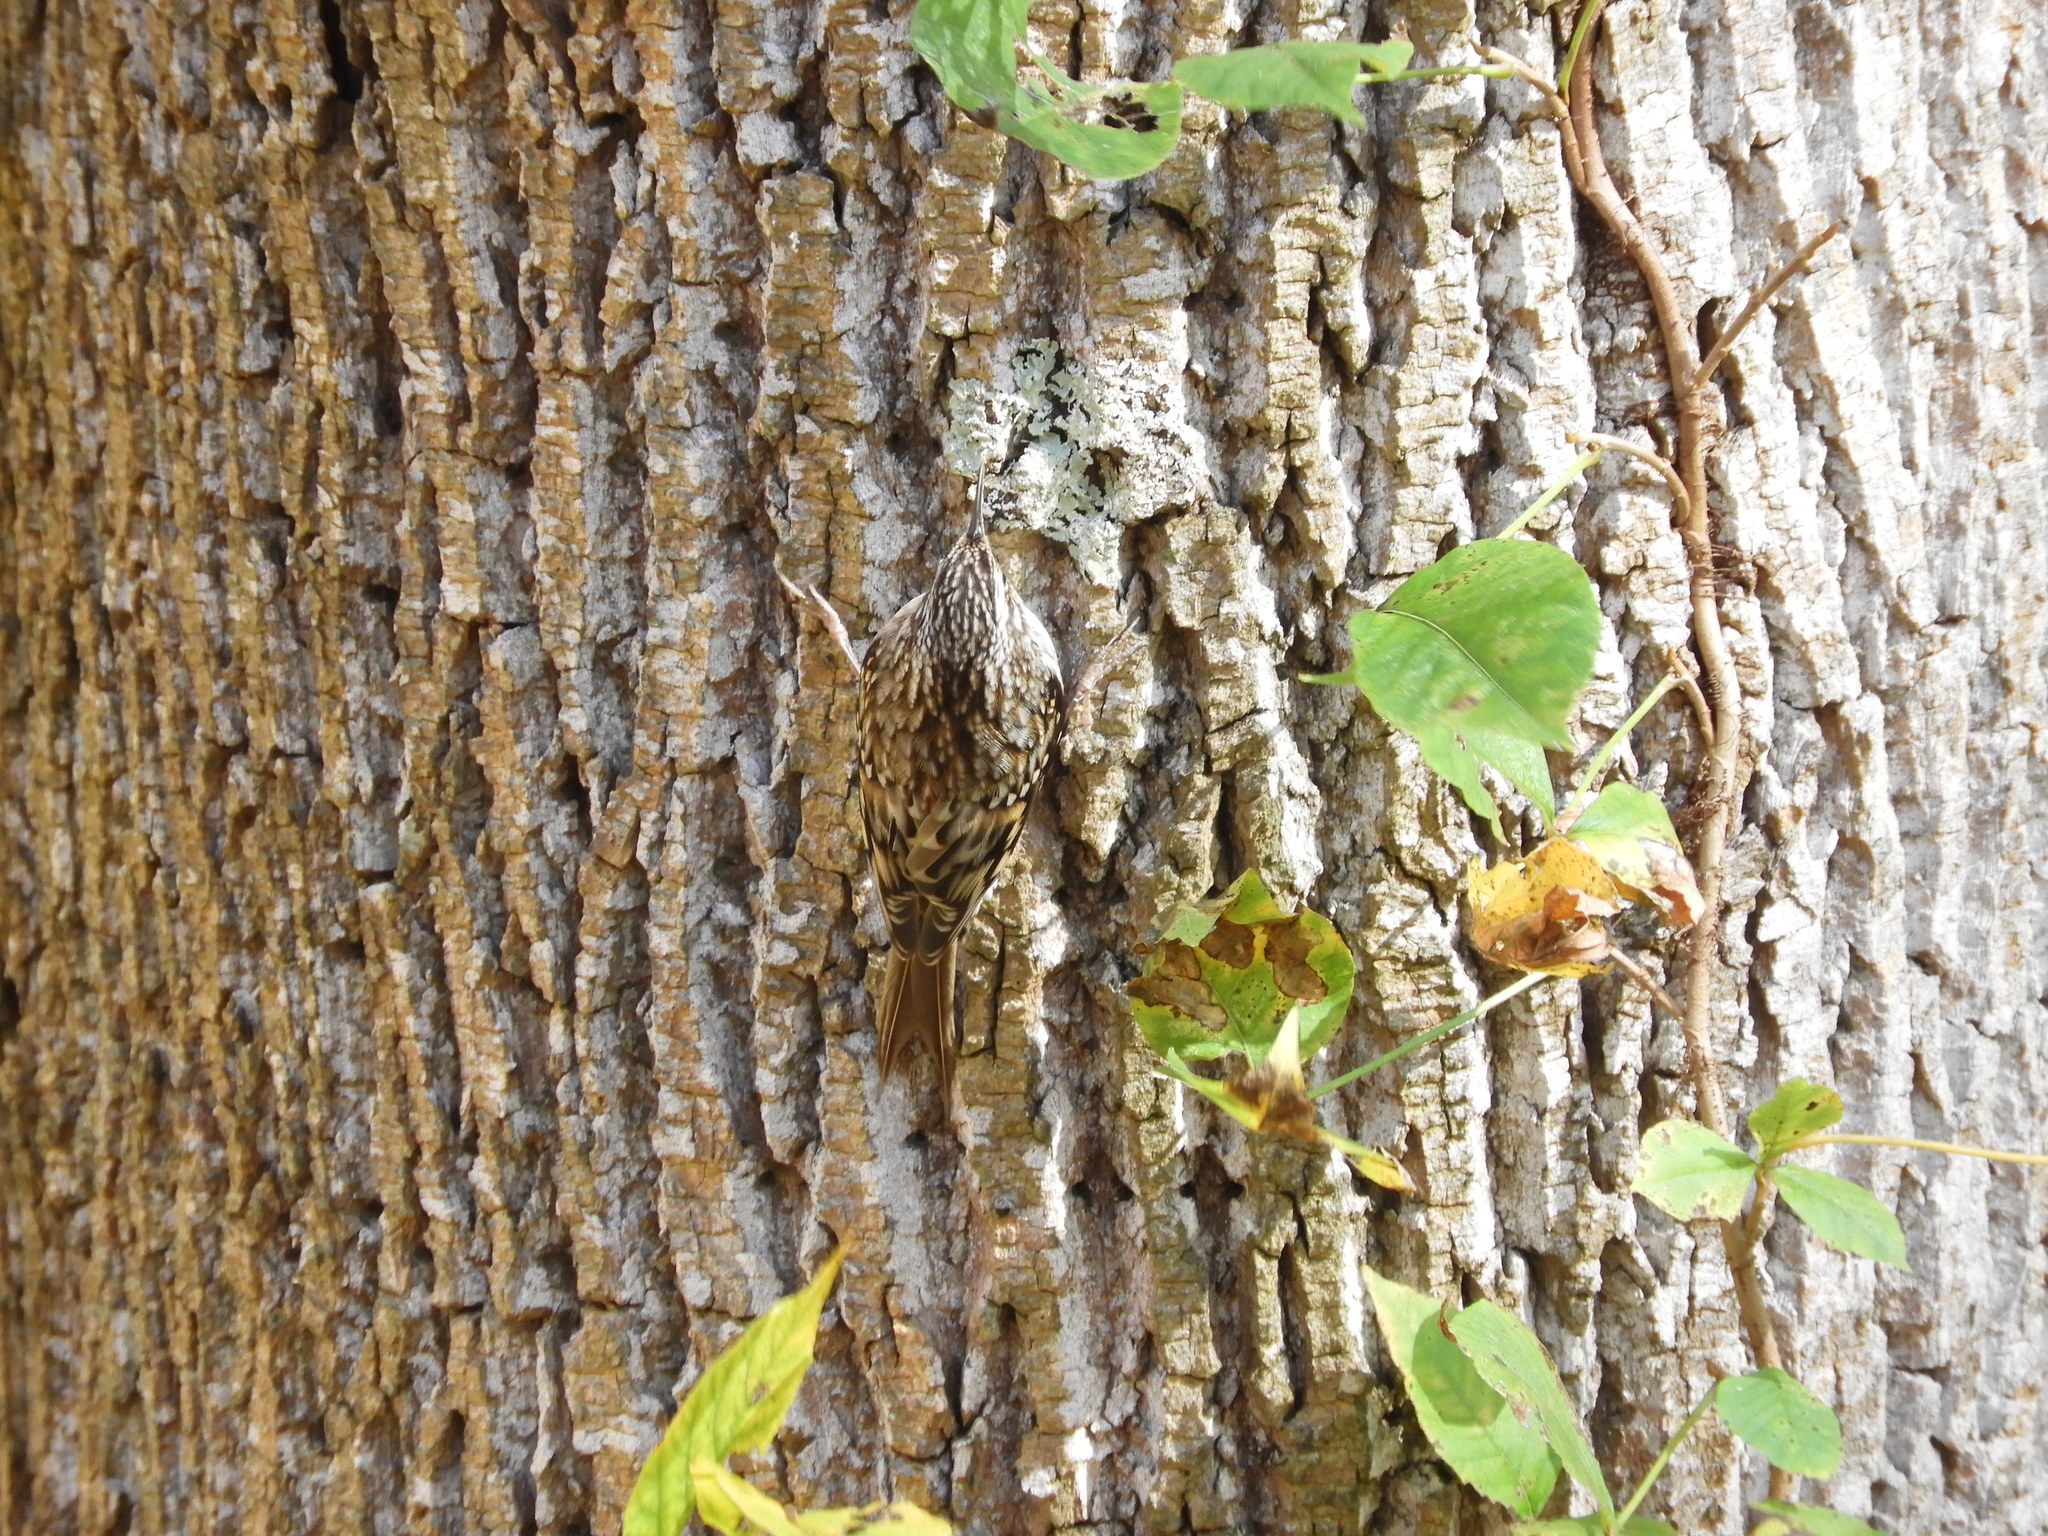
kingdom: Animalia
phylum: Chordata
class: Aves
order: Passeriformes
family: Certhiidae
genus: Certhia
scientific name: Certhia americana
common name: Brown creeper
